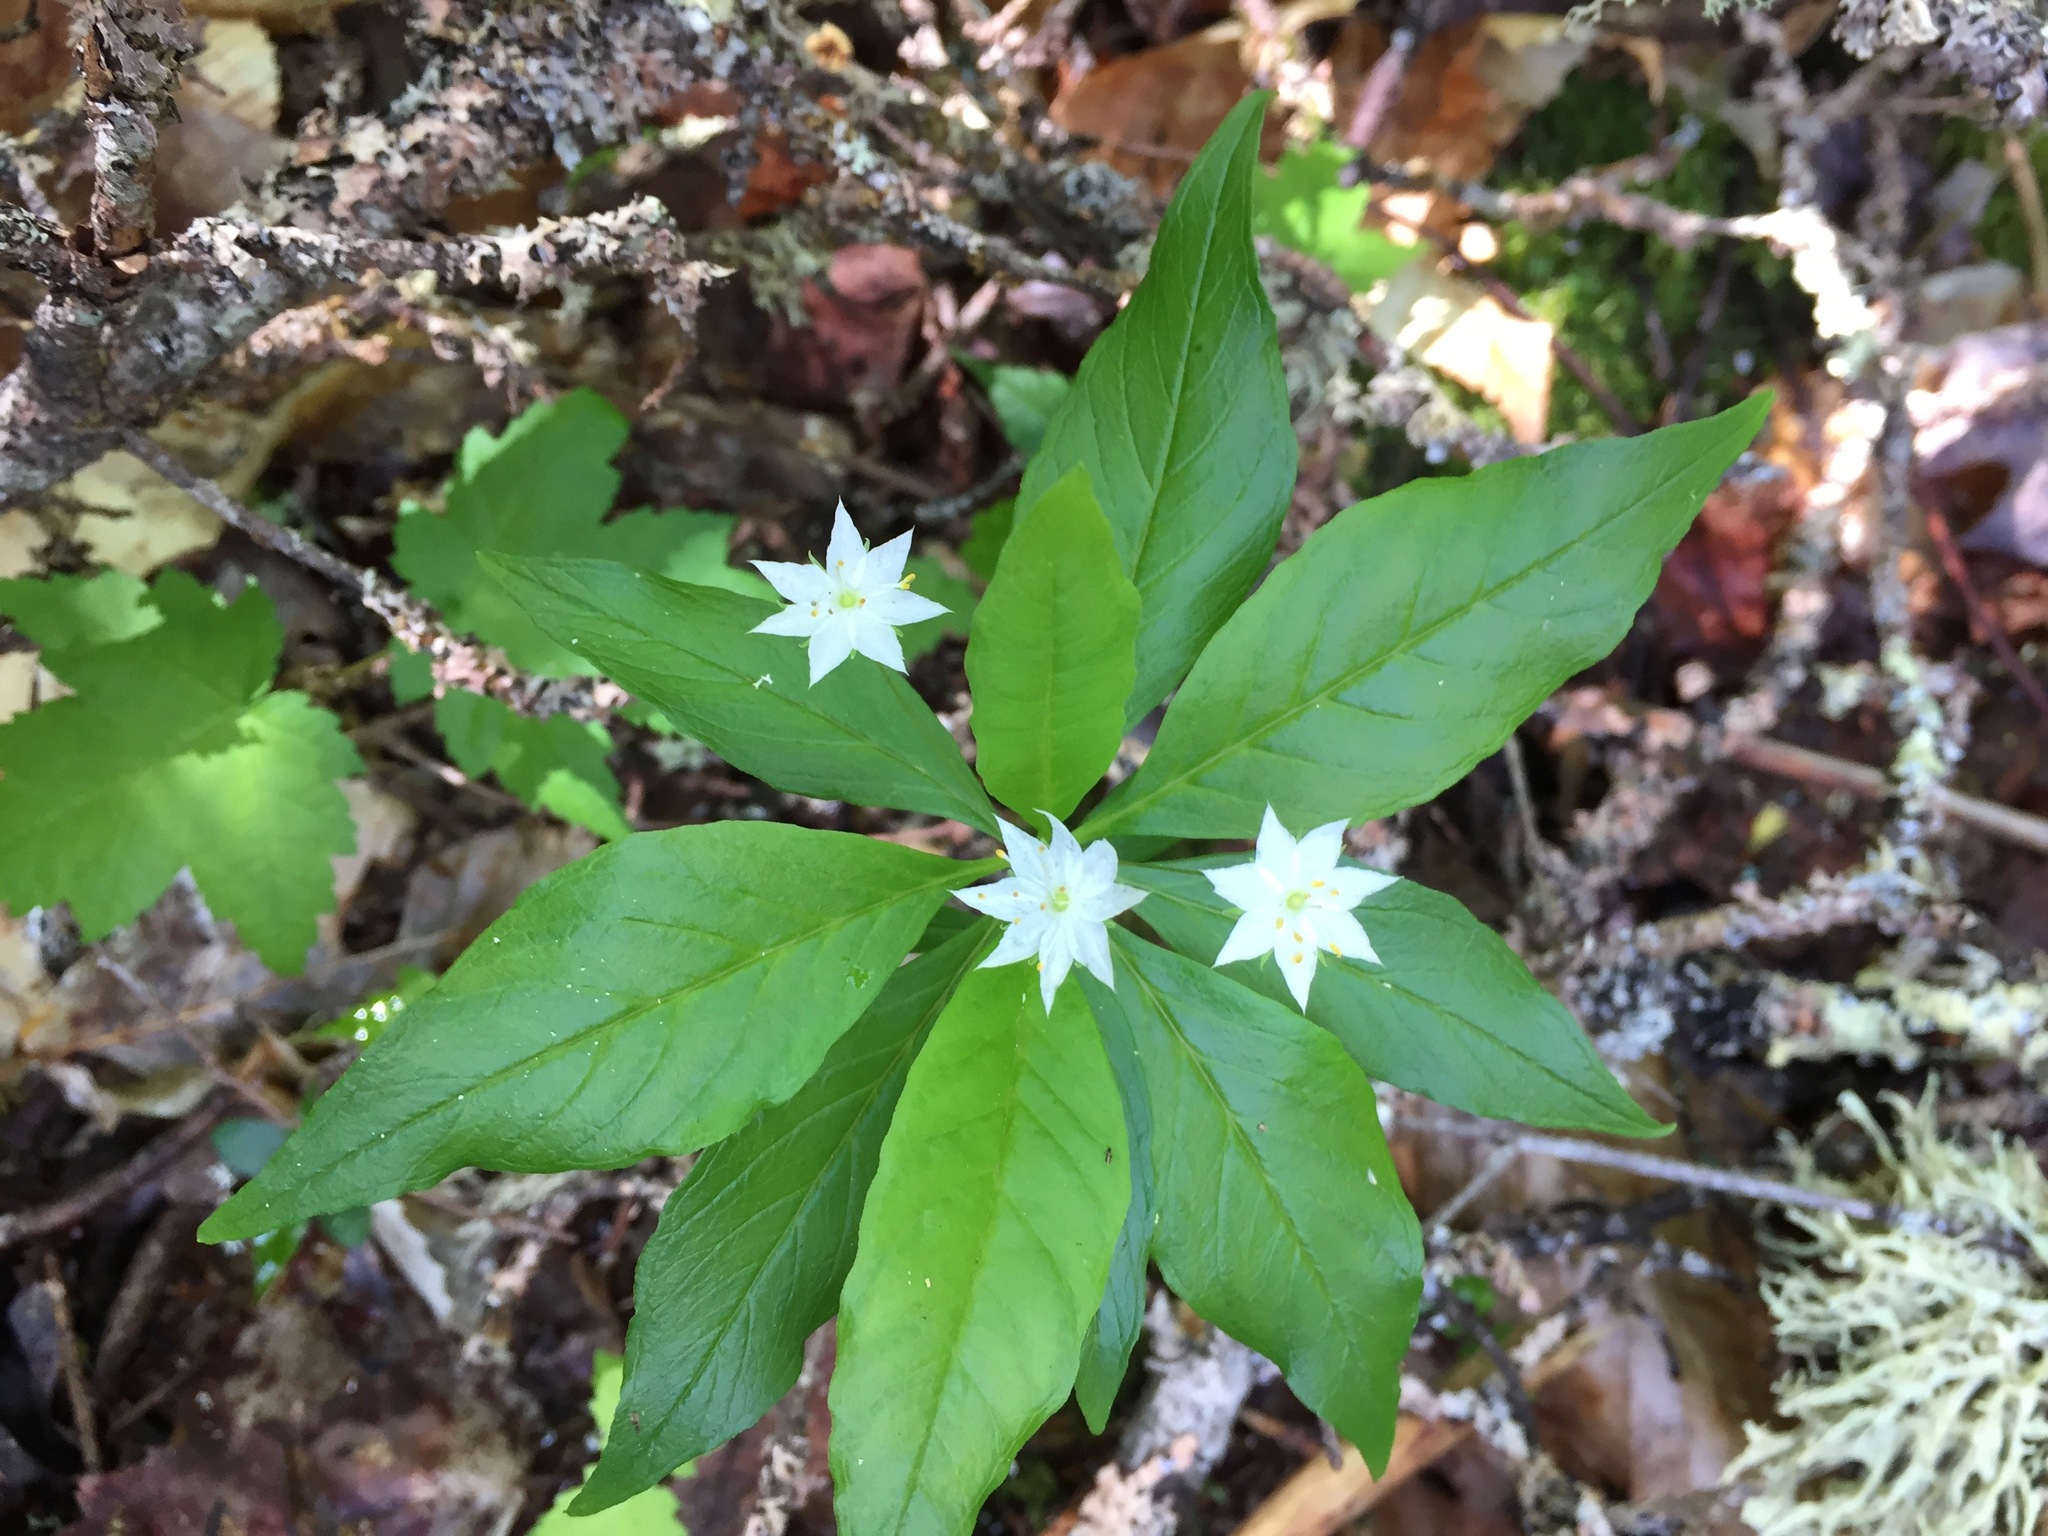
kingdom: Plantae
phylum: Tracheophyta
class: Magnoliopsida
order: Ericales
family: Primulaceae
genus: Lysimachia
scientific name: Lysimachia borealis
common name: American starflower
